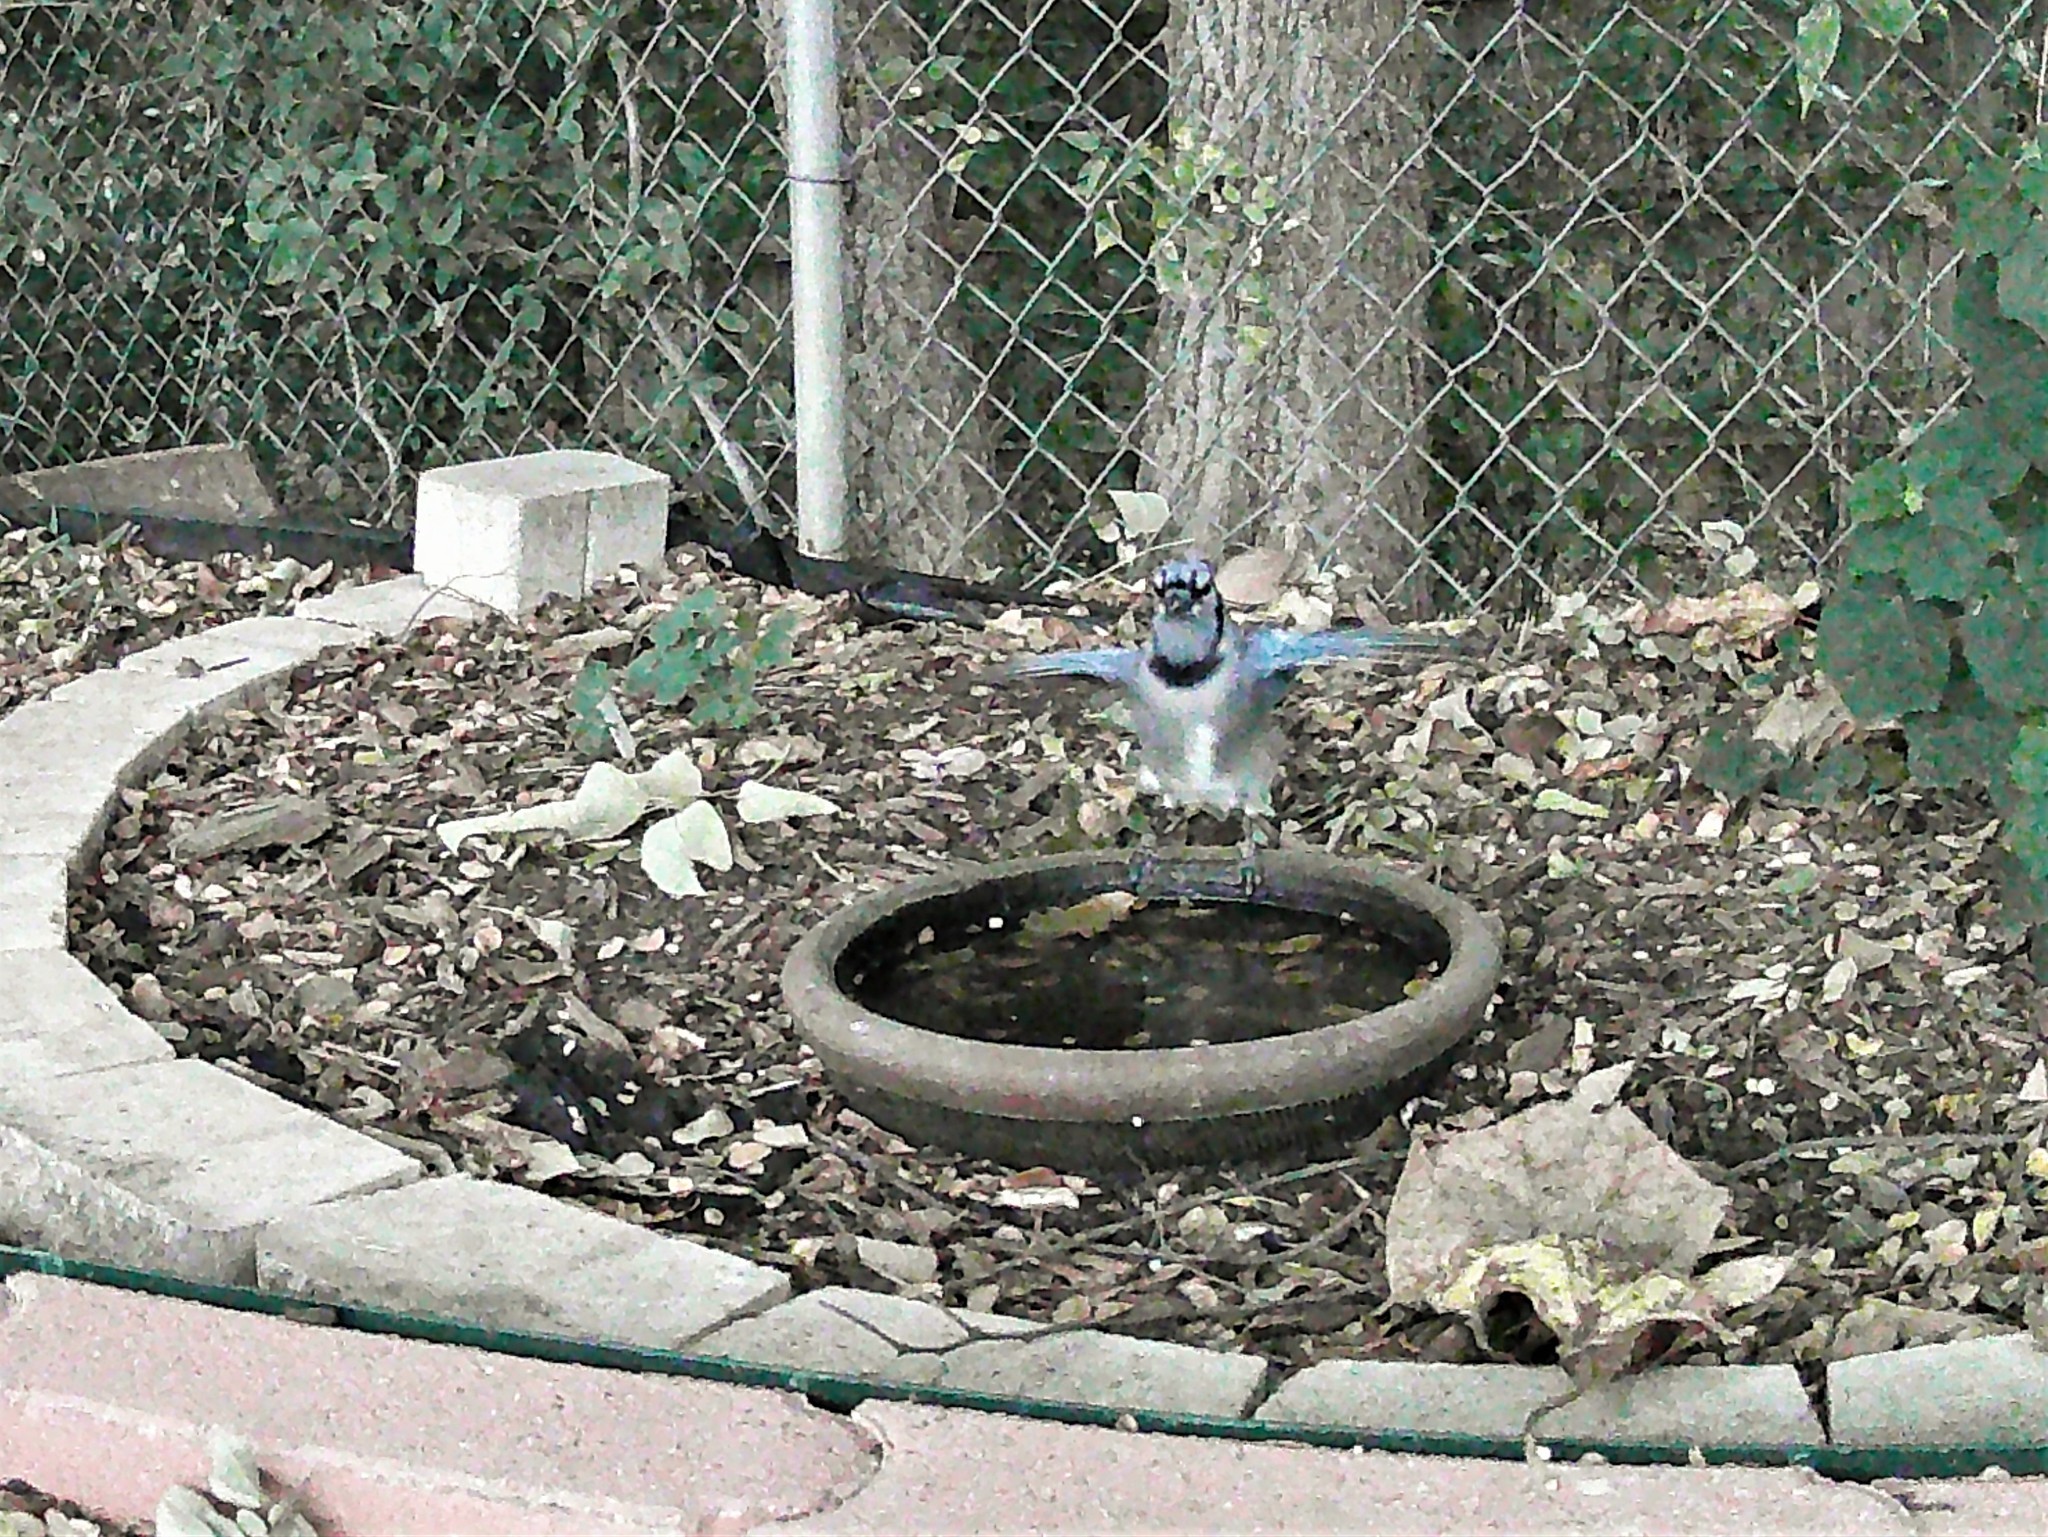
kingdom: Animalia
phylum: Chordata
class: Aves
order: Passeriformes
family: Corvidae
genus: Cyanocitta
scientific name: Cyanocitta cristata
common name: Blue jay
